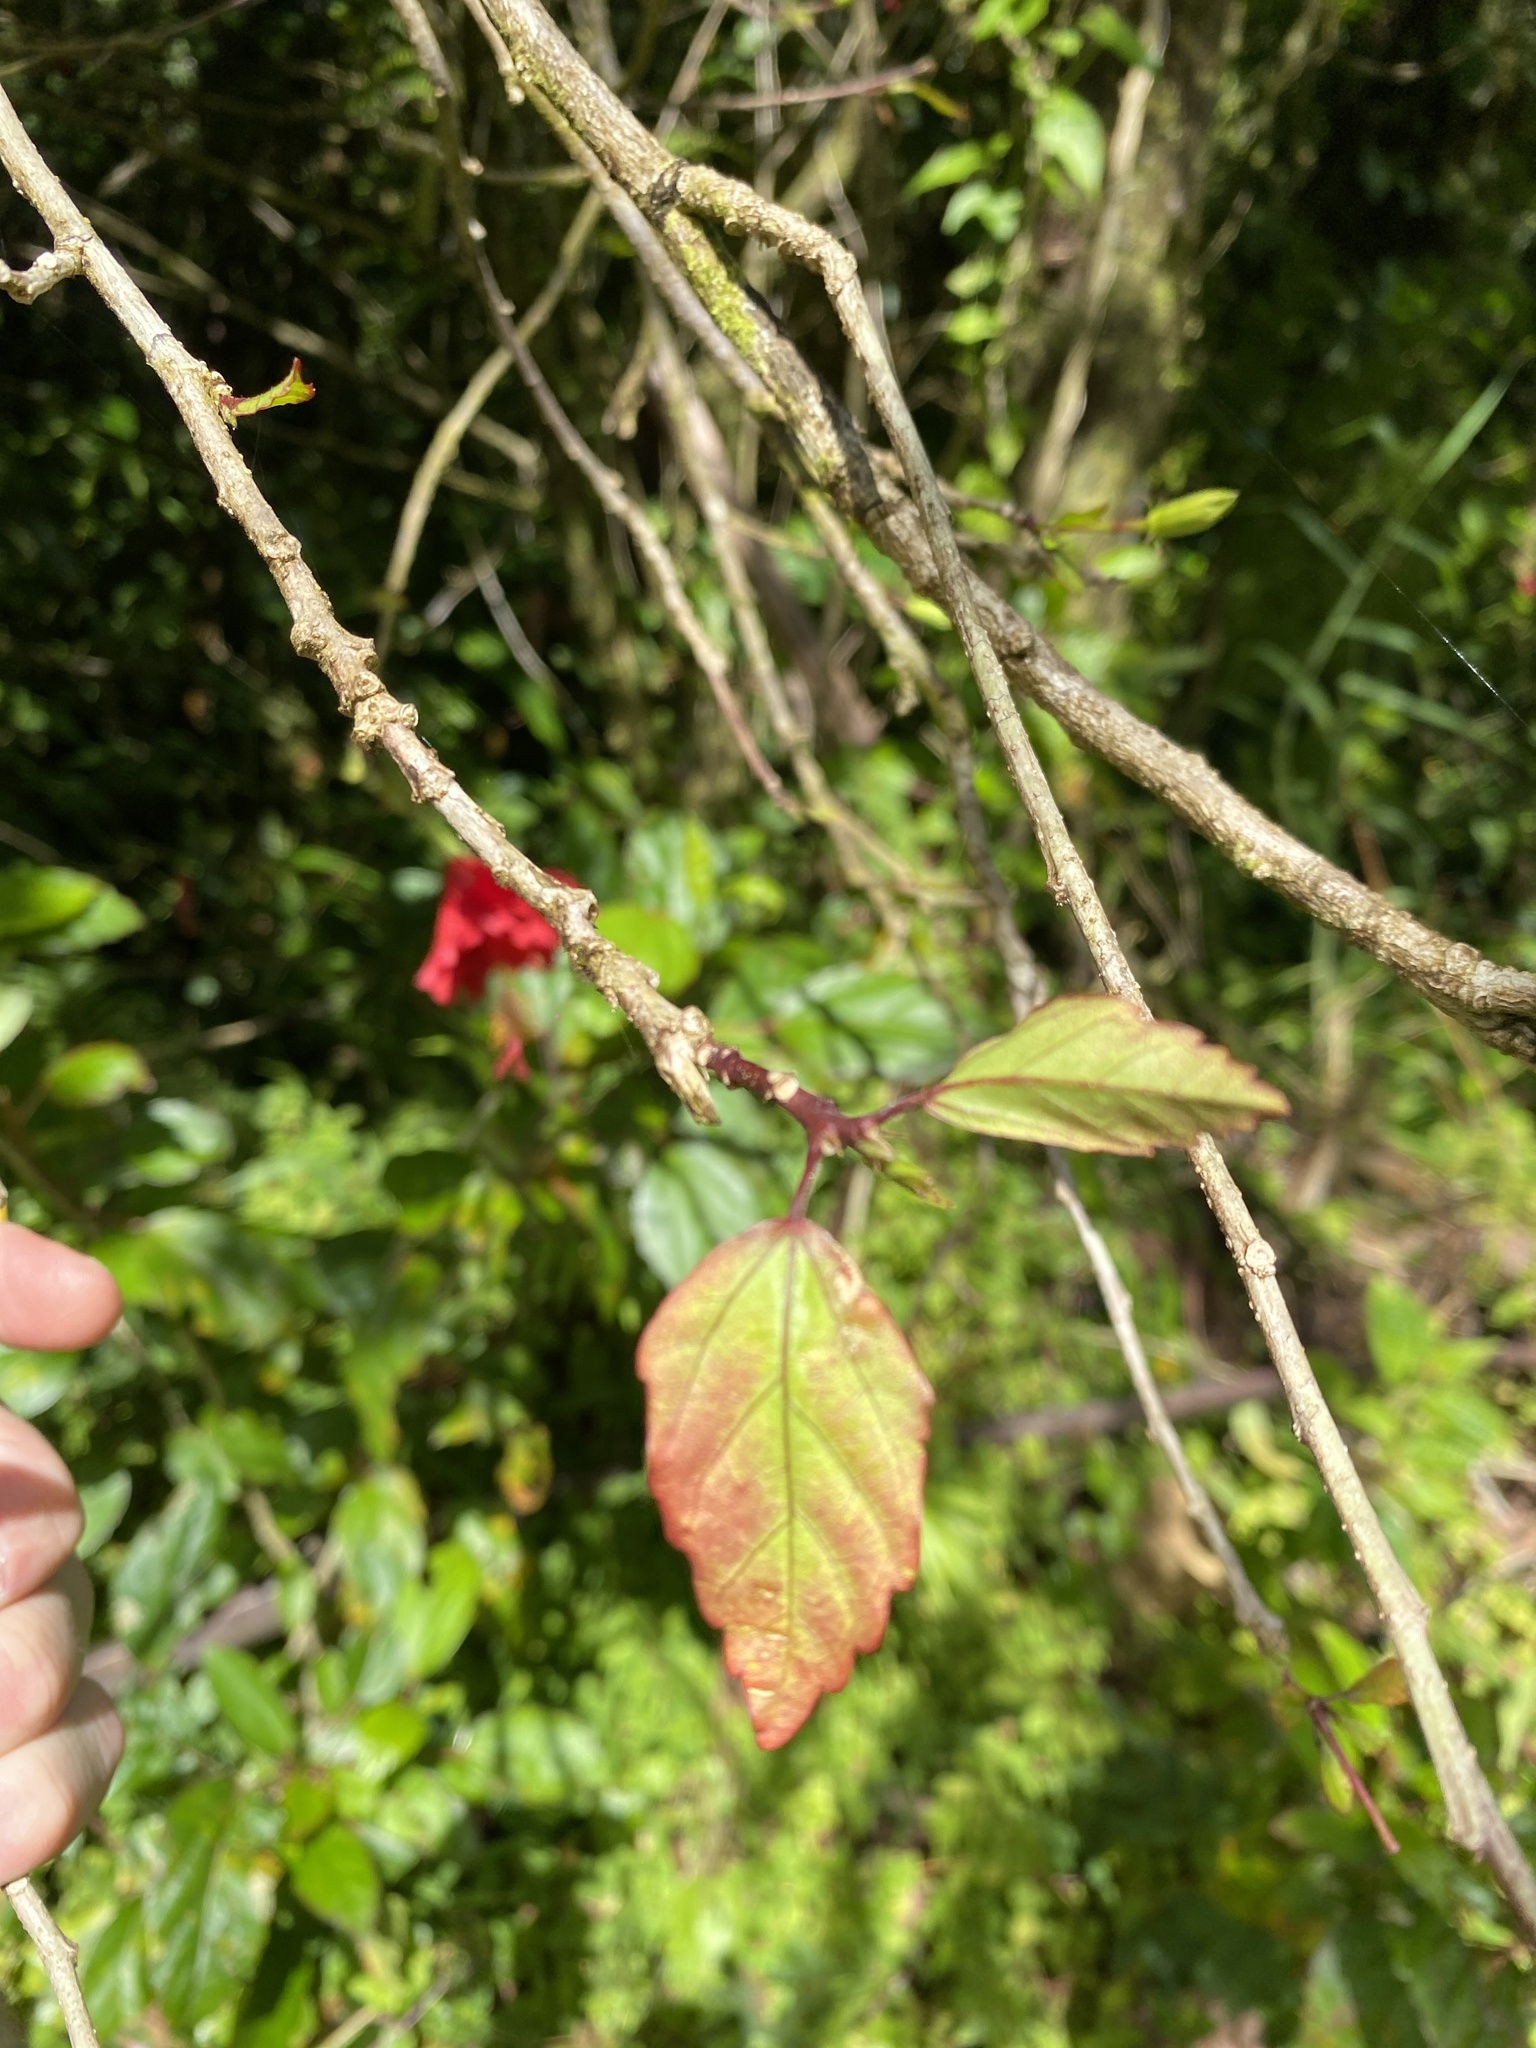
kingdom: Plantae
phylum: Tracheophyta
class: Magnoliopsida
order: Malvales
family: Malvaceae
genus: Hibiscus
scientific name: Hibiscus archeri
